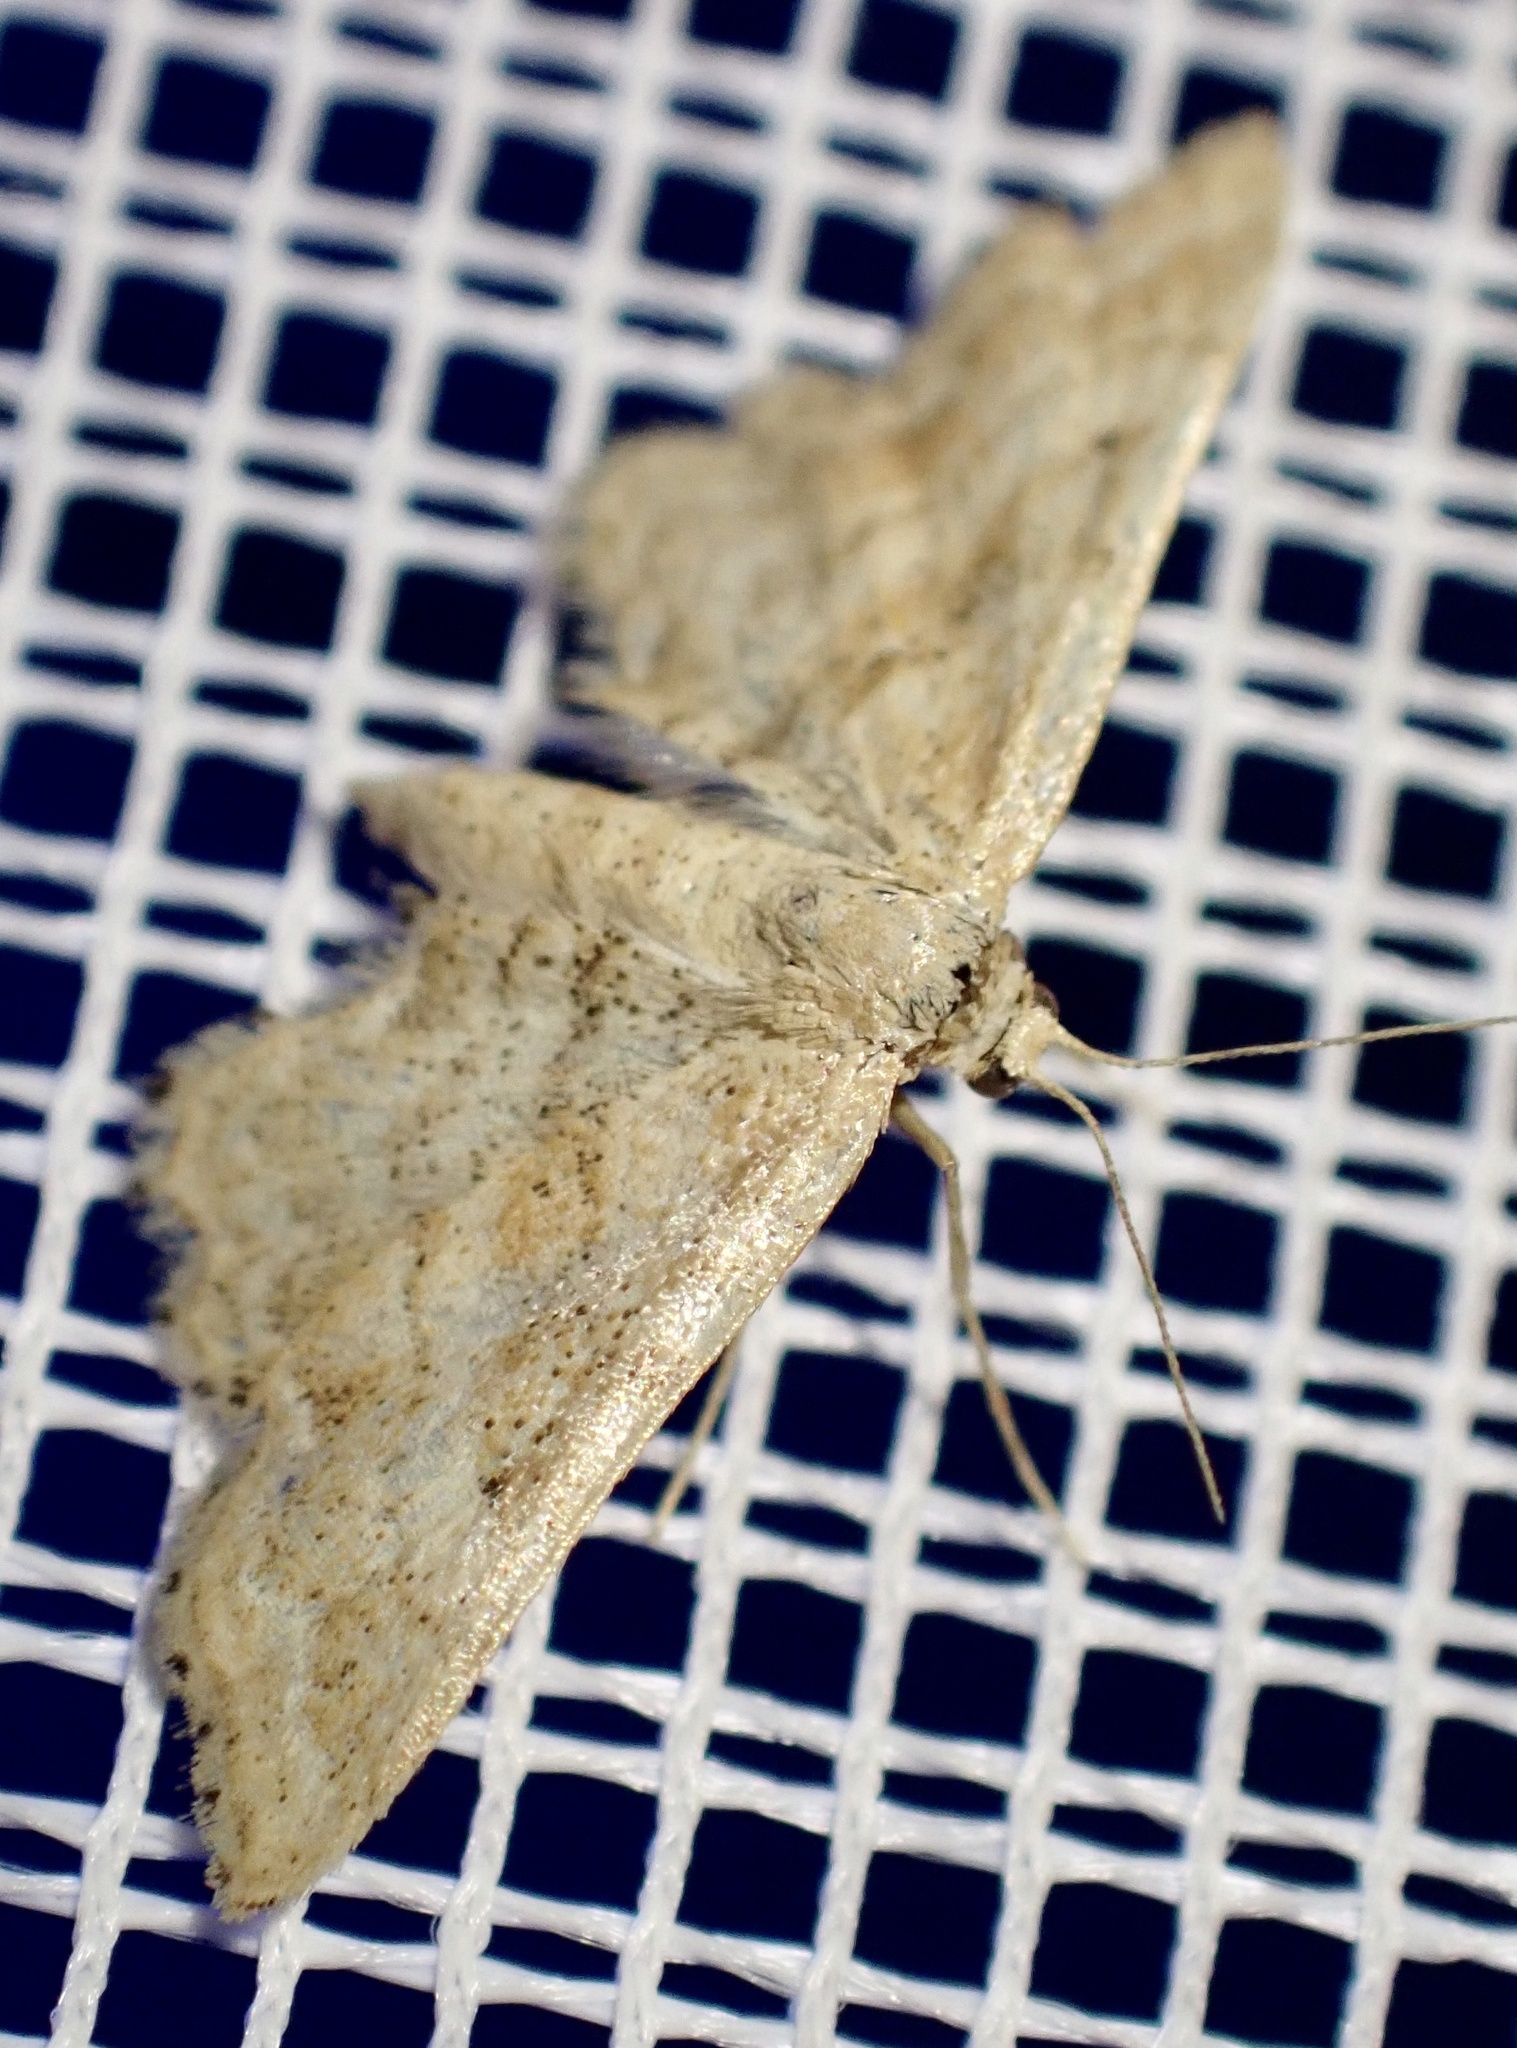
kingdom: Animalia
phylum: Arthropoda
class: Insecta
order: Lepidoptera
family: Geometridae
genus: Idaea
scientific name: Idaea fractilineata
